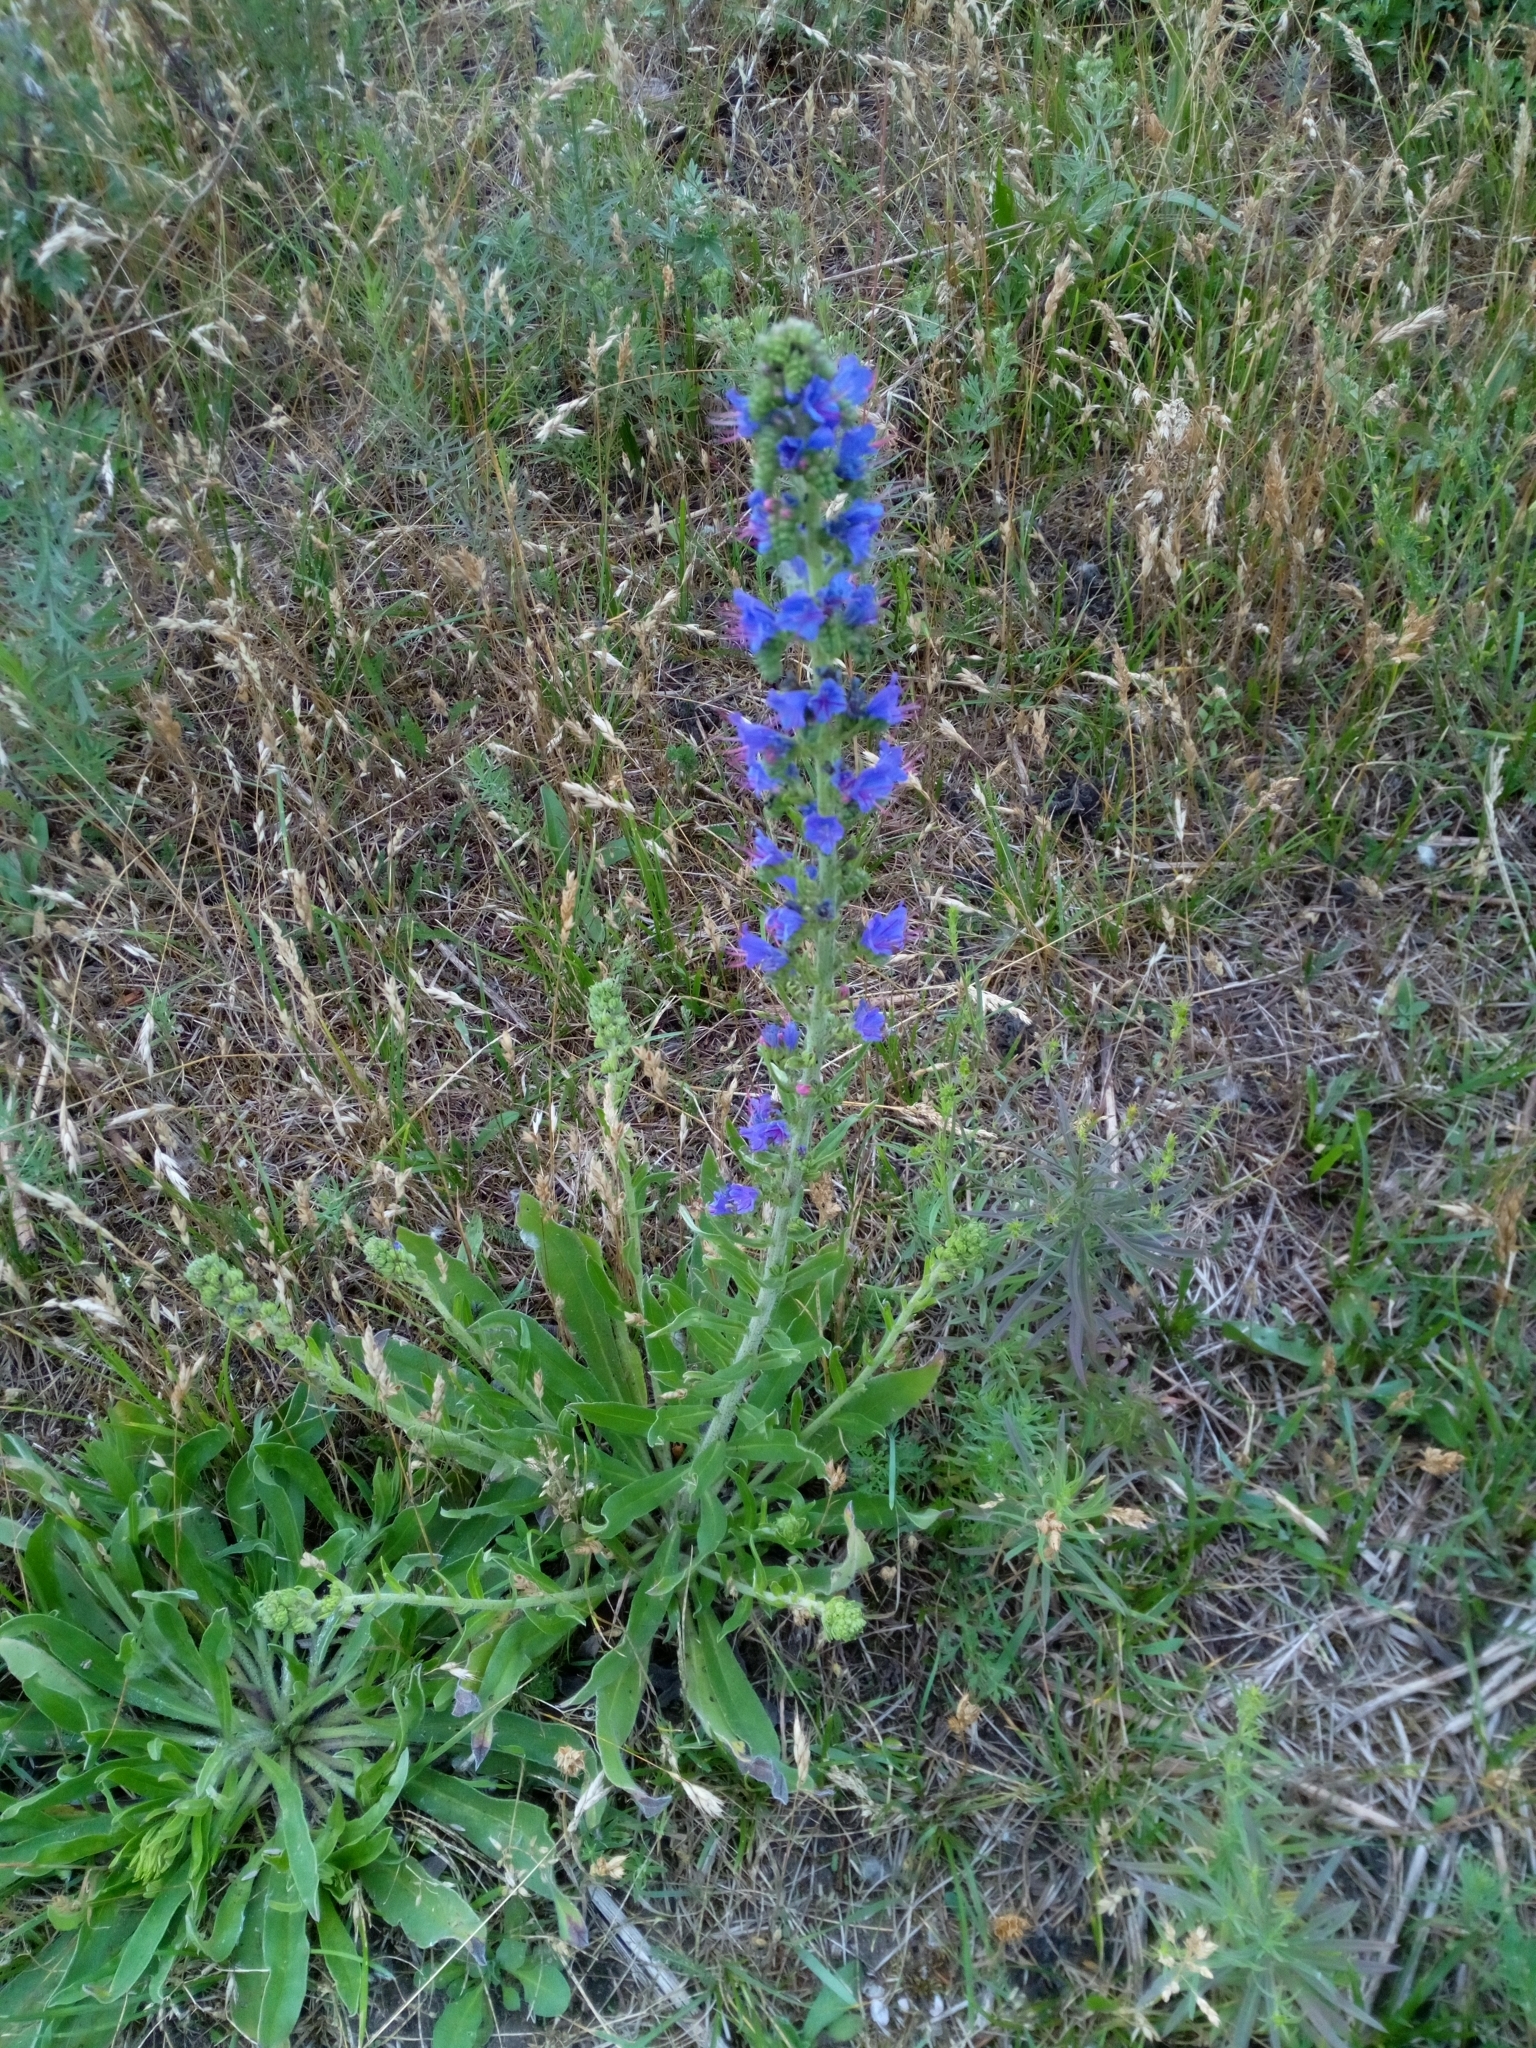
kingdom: Plantae
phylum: Tracheophyta
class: Magnoliopsida
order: Boraginales
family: Boraginaceae
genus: Echium
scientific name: Echium vulgare
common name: Common viper's bugloss
